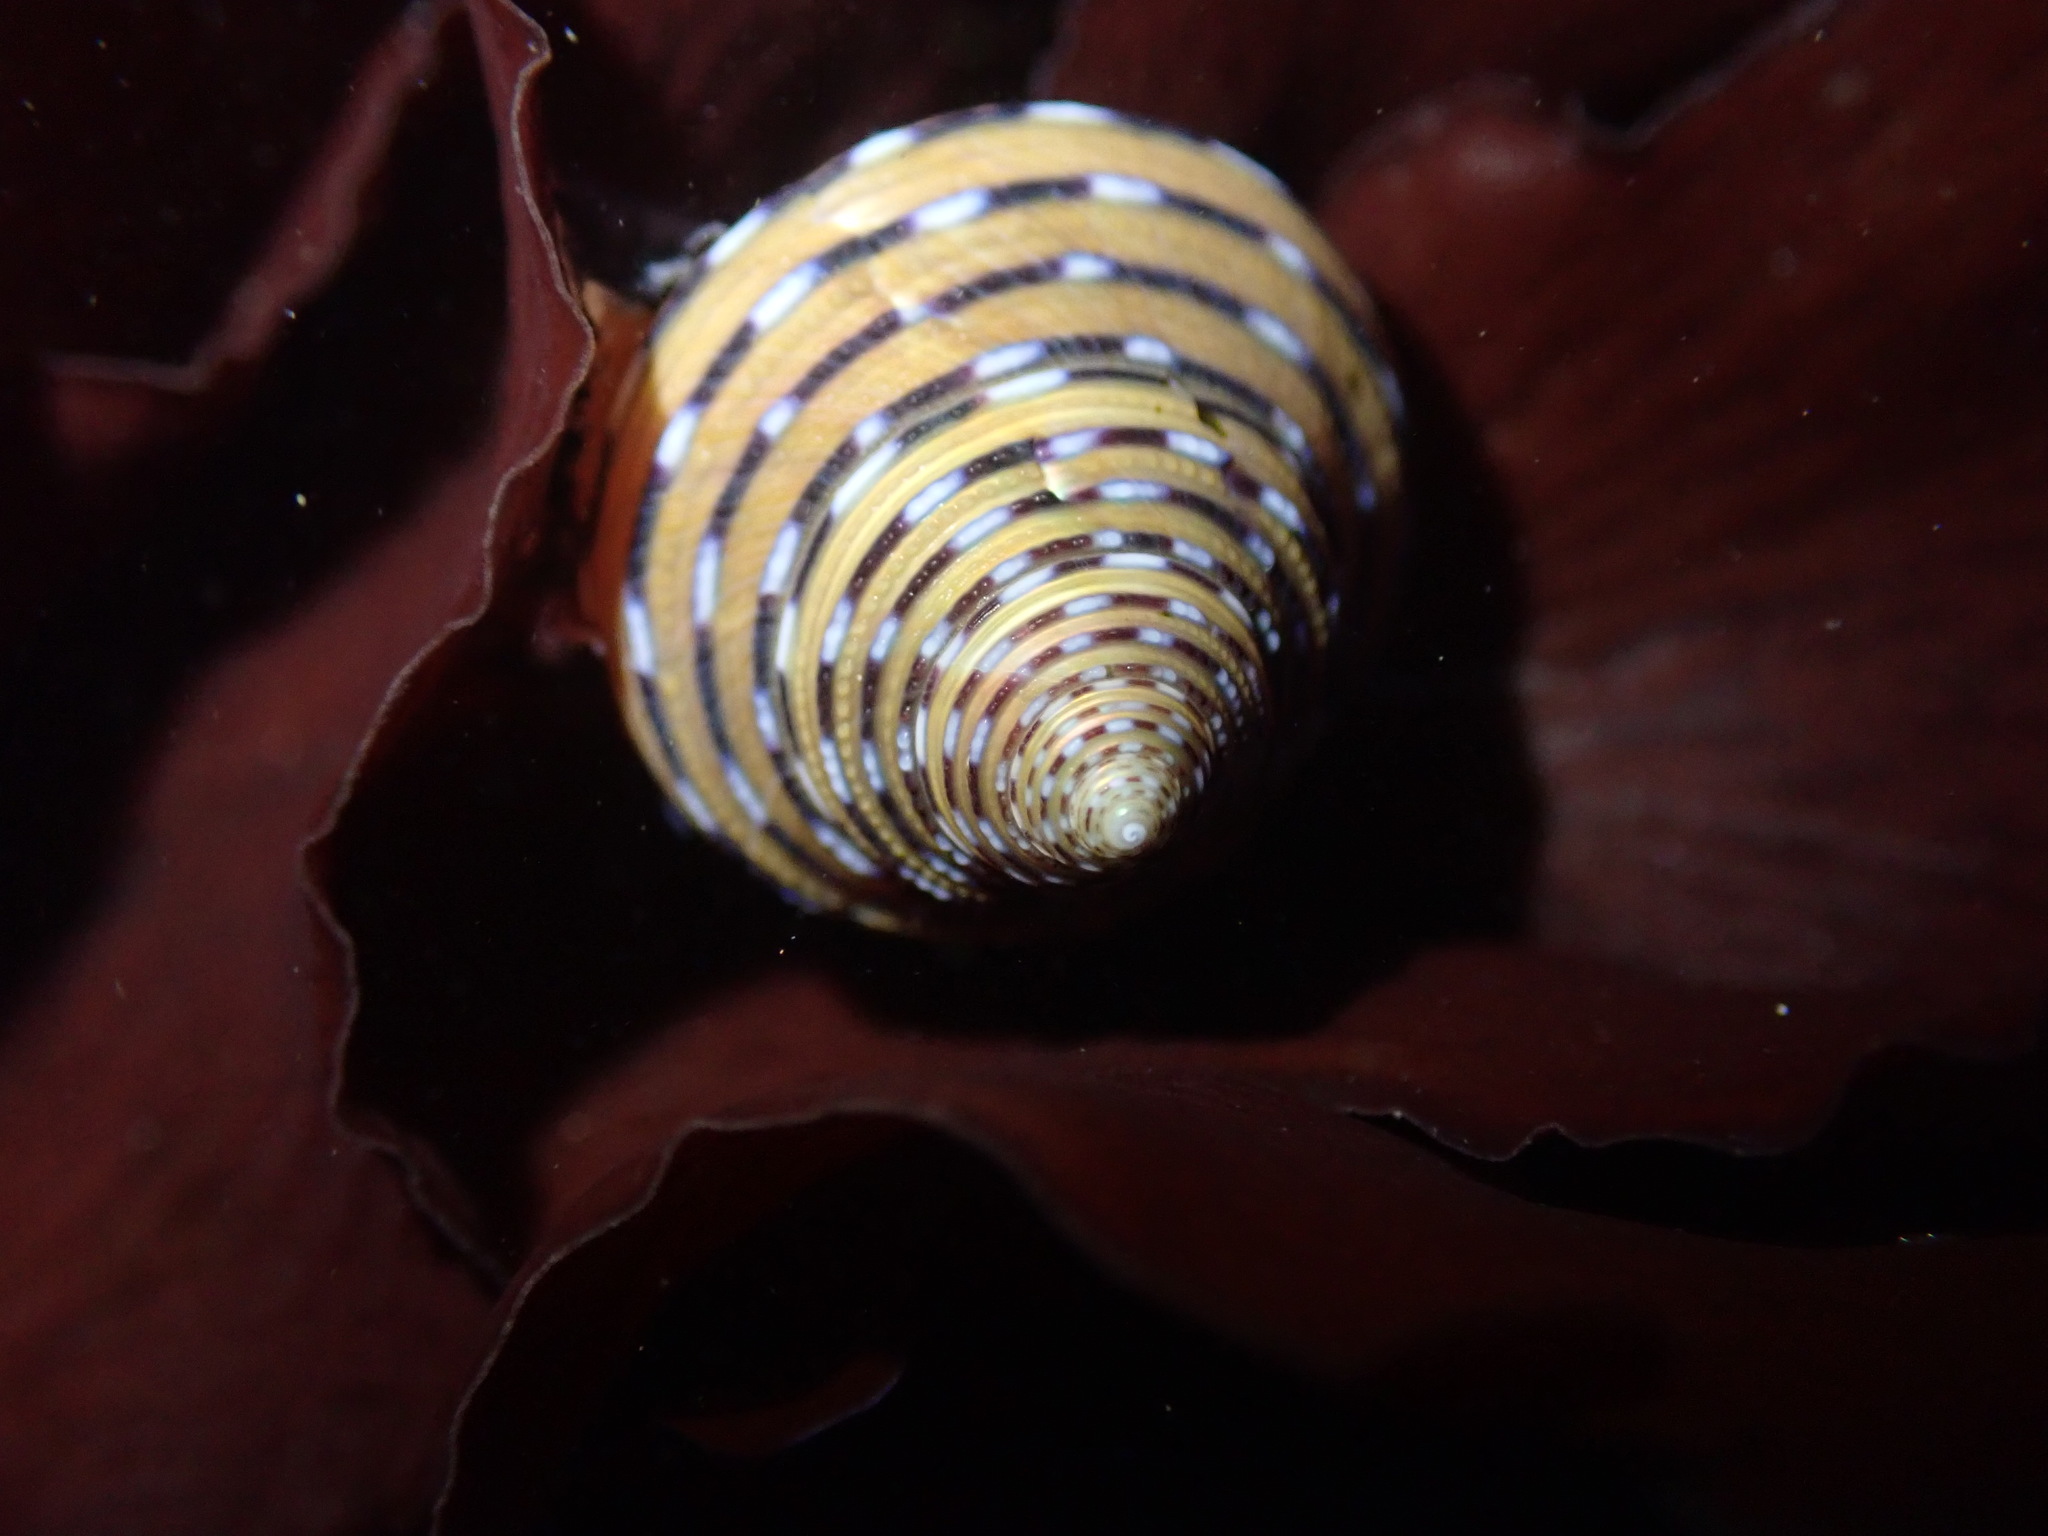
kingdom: Animalia
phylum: Mollusca
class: Gastropoda
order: Trochida
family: Calliostomatidae
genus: Calliostoma
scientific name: Calliostoma tricolor
